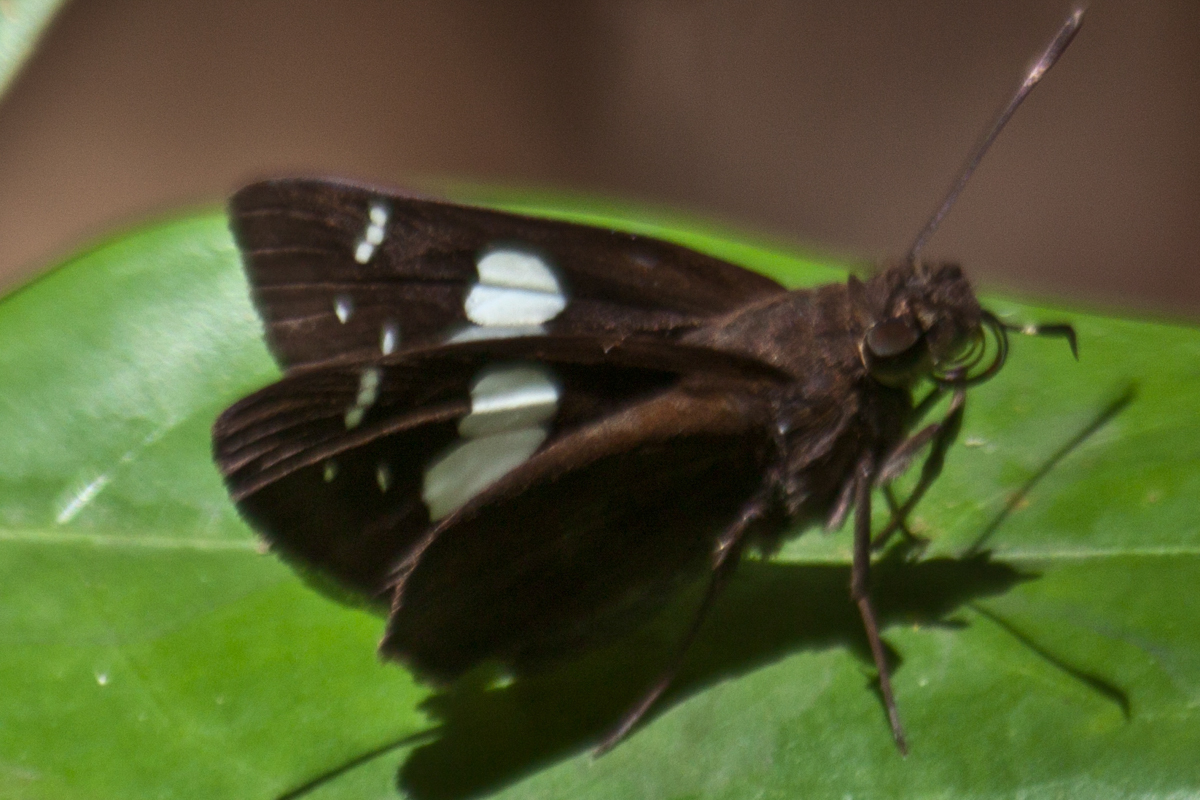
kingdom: Animalia
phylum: Arthropoda
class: Insecta
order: Lepidoptera
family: Hesperiidae
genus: Notocrypta
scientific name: Notocrypta curvifascia
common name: Restricted demon
